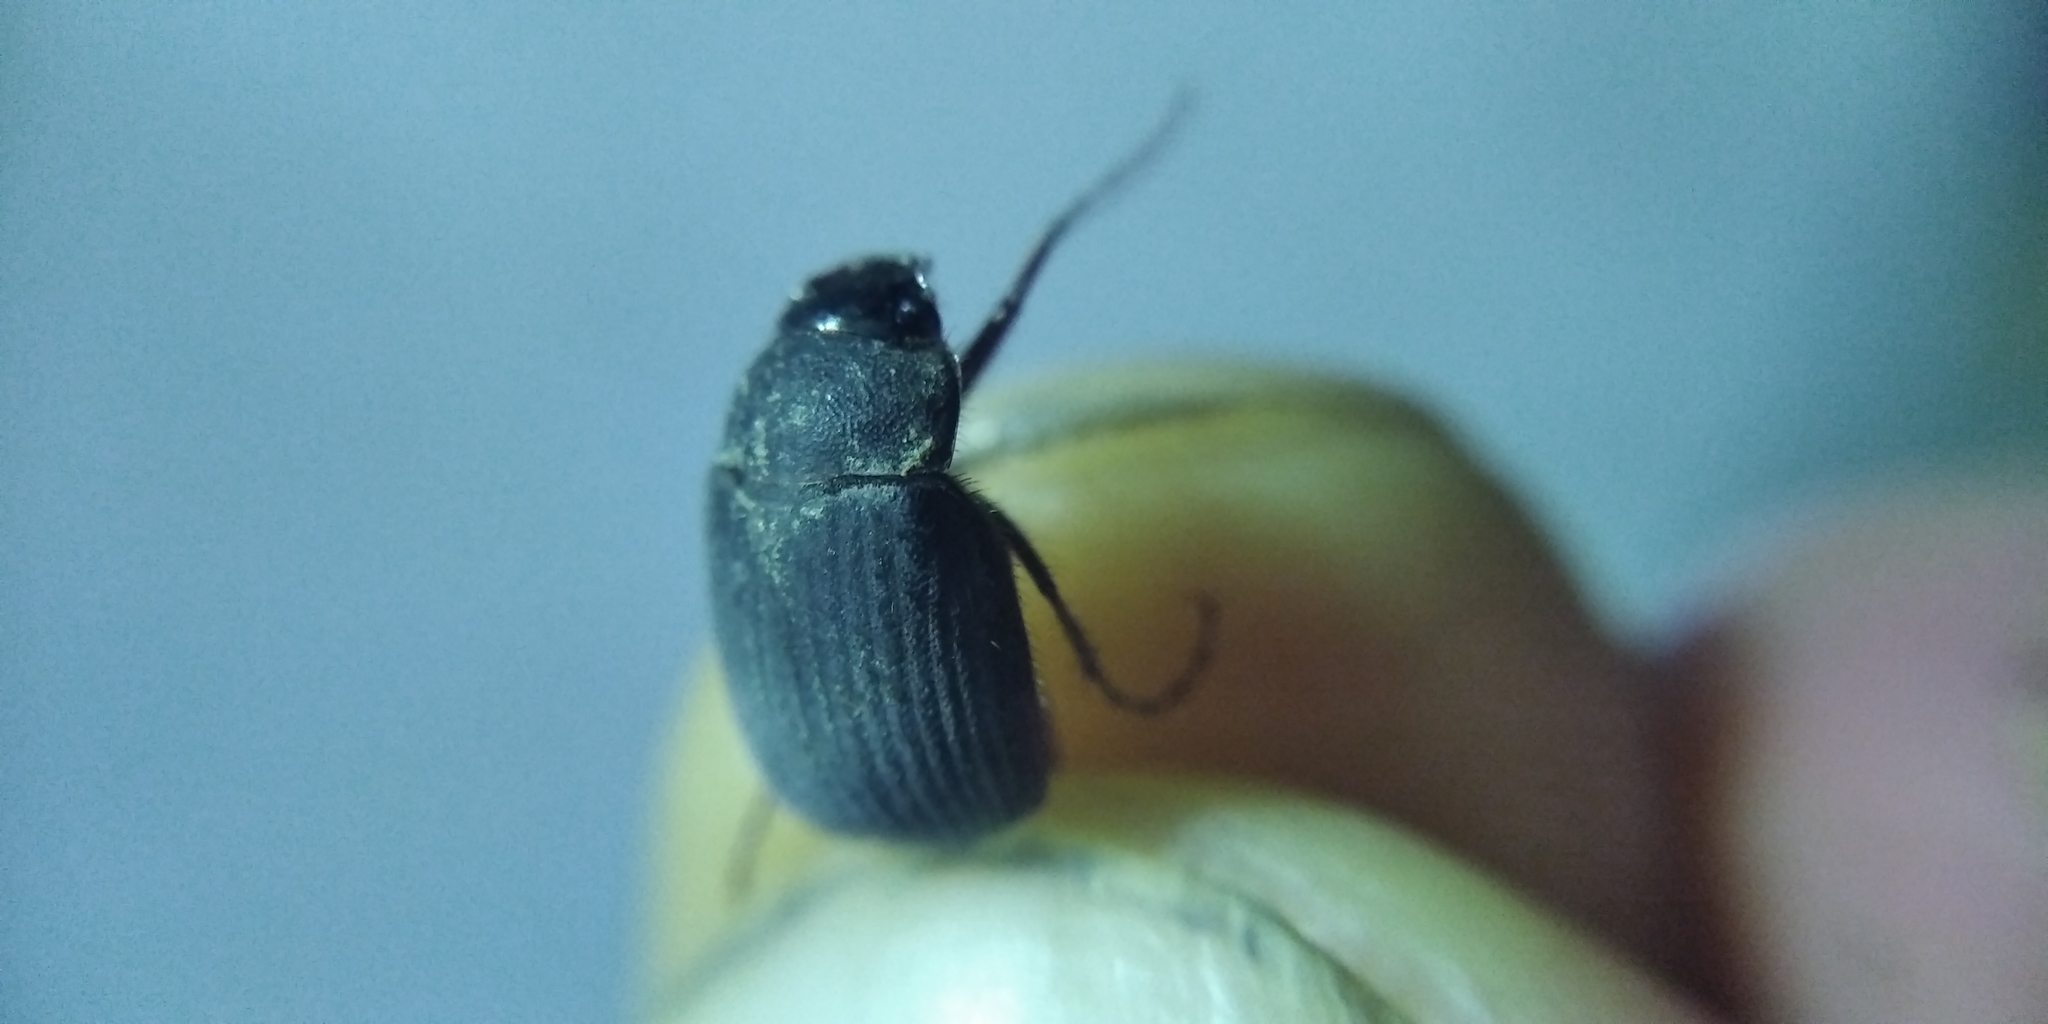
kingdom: Animalia
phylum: Arthropoda
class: Insecta
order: Coleoptera
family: Scarabaeidae
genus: Maladera
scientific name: Maladera holosericea
